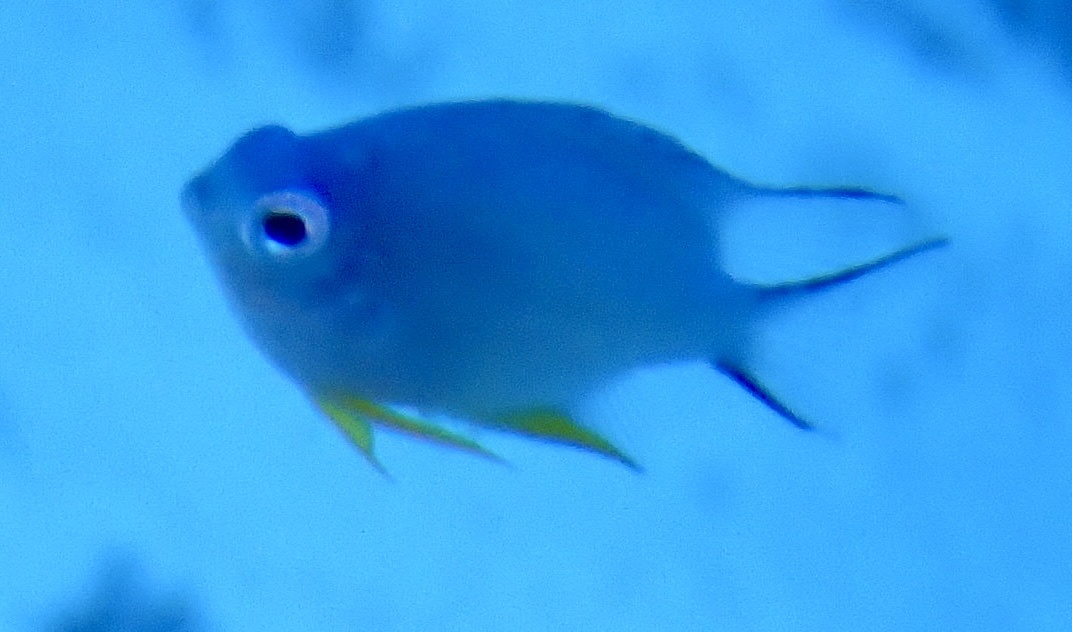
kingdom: Animalia
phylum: Chordata
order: Perciformes
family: Pomacentridae
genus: Amblyglyphidodon
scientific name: Amblyglyphidodon indicus
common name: Maldives damselfish
